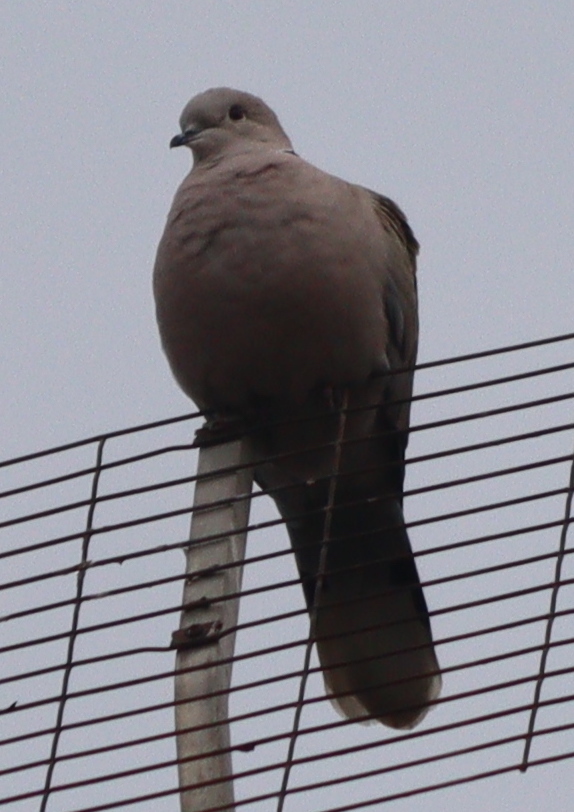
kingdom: Animalia
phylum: Chordata
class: Aves
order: Columbiformes
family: Columbidae
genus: Streptopelia
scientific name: Streptopelia decaocto
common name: Eurasian collared dove
